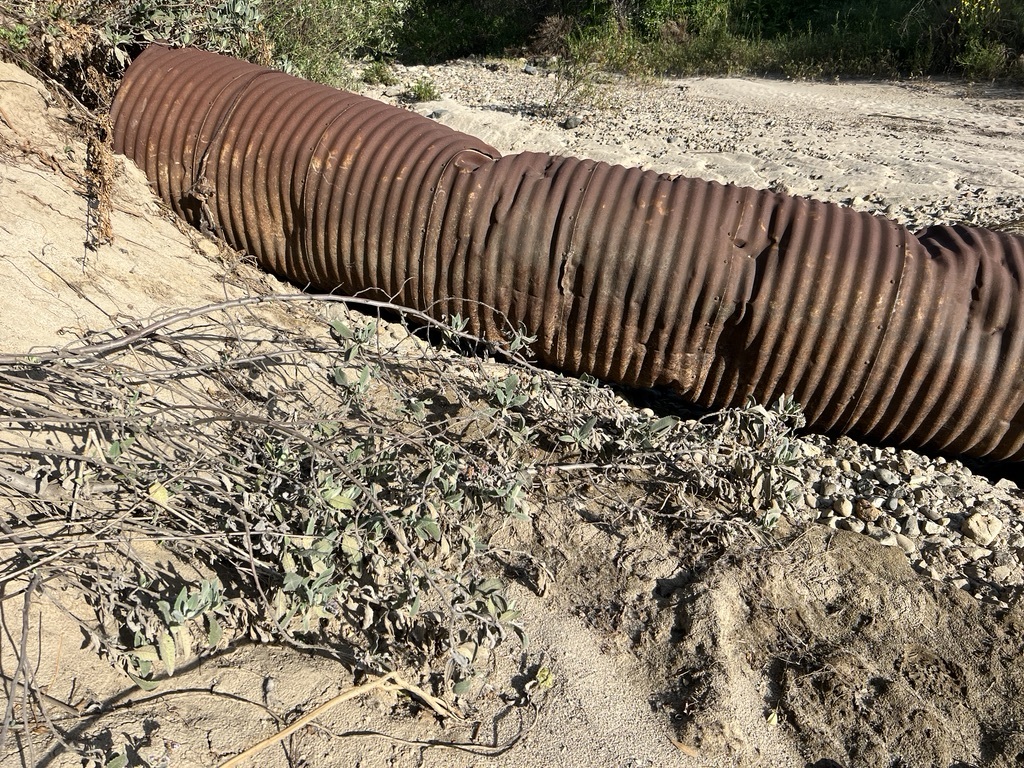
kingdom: Plantae
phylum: Tracheophyta
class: Magnoliopsida
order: Boraginales
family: Namaceae
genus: Eriodictyon
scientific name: Eriodictyon crassifolium
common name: Thick-leaf yerba-santa
